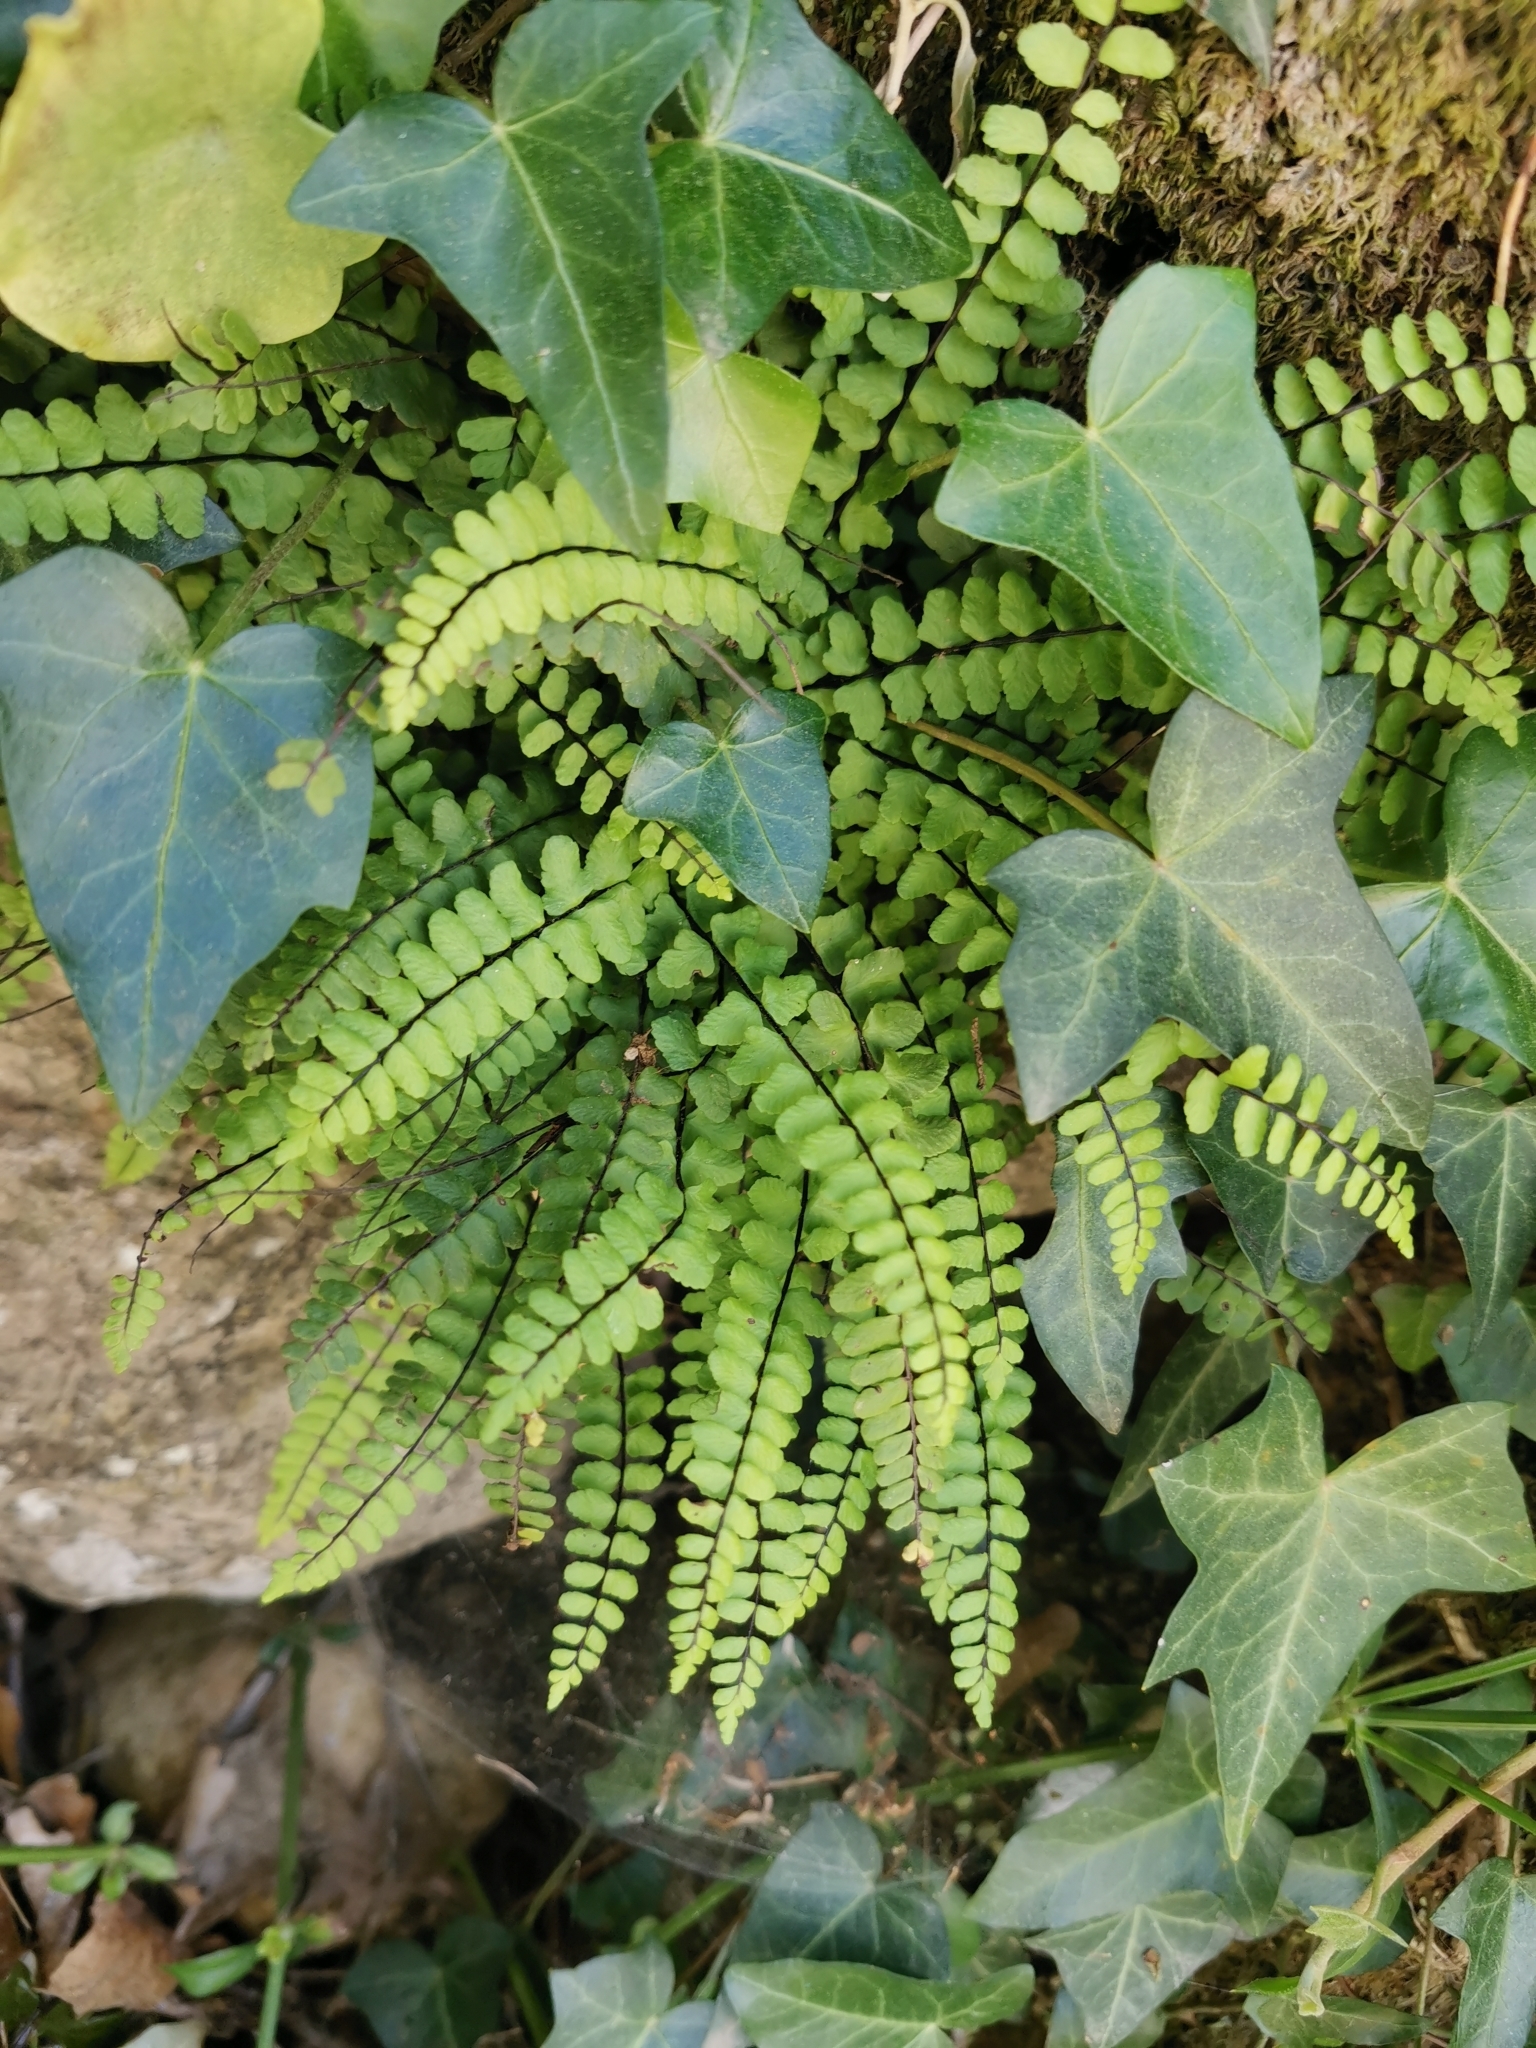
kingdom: Plantae
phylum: Tracheophyta
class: Polypodiopsida
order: Polypodiales
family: Aspleniaceae
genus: Asplenium
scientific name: Asplenium trichomanes
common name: Maidenhair spleenwort
